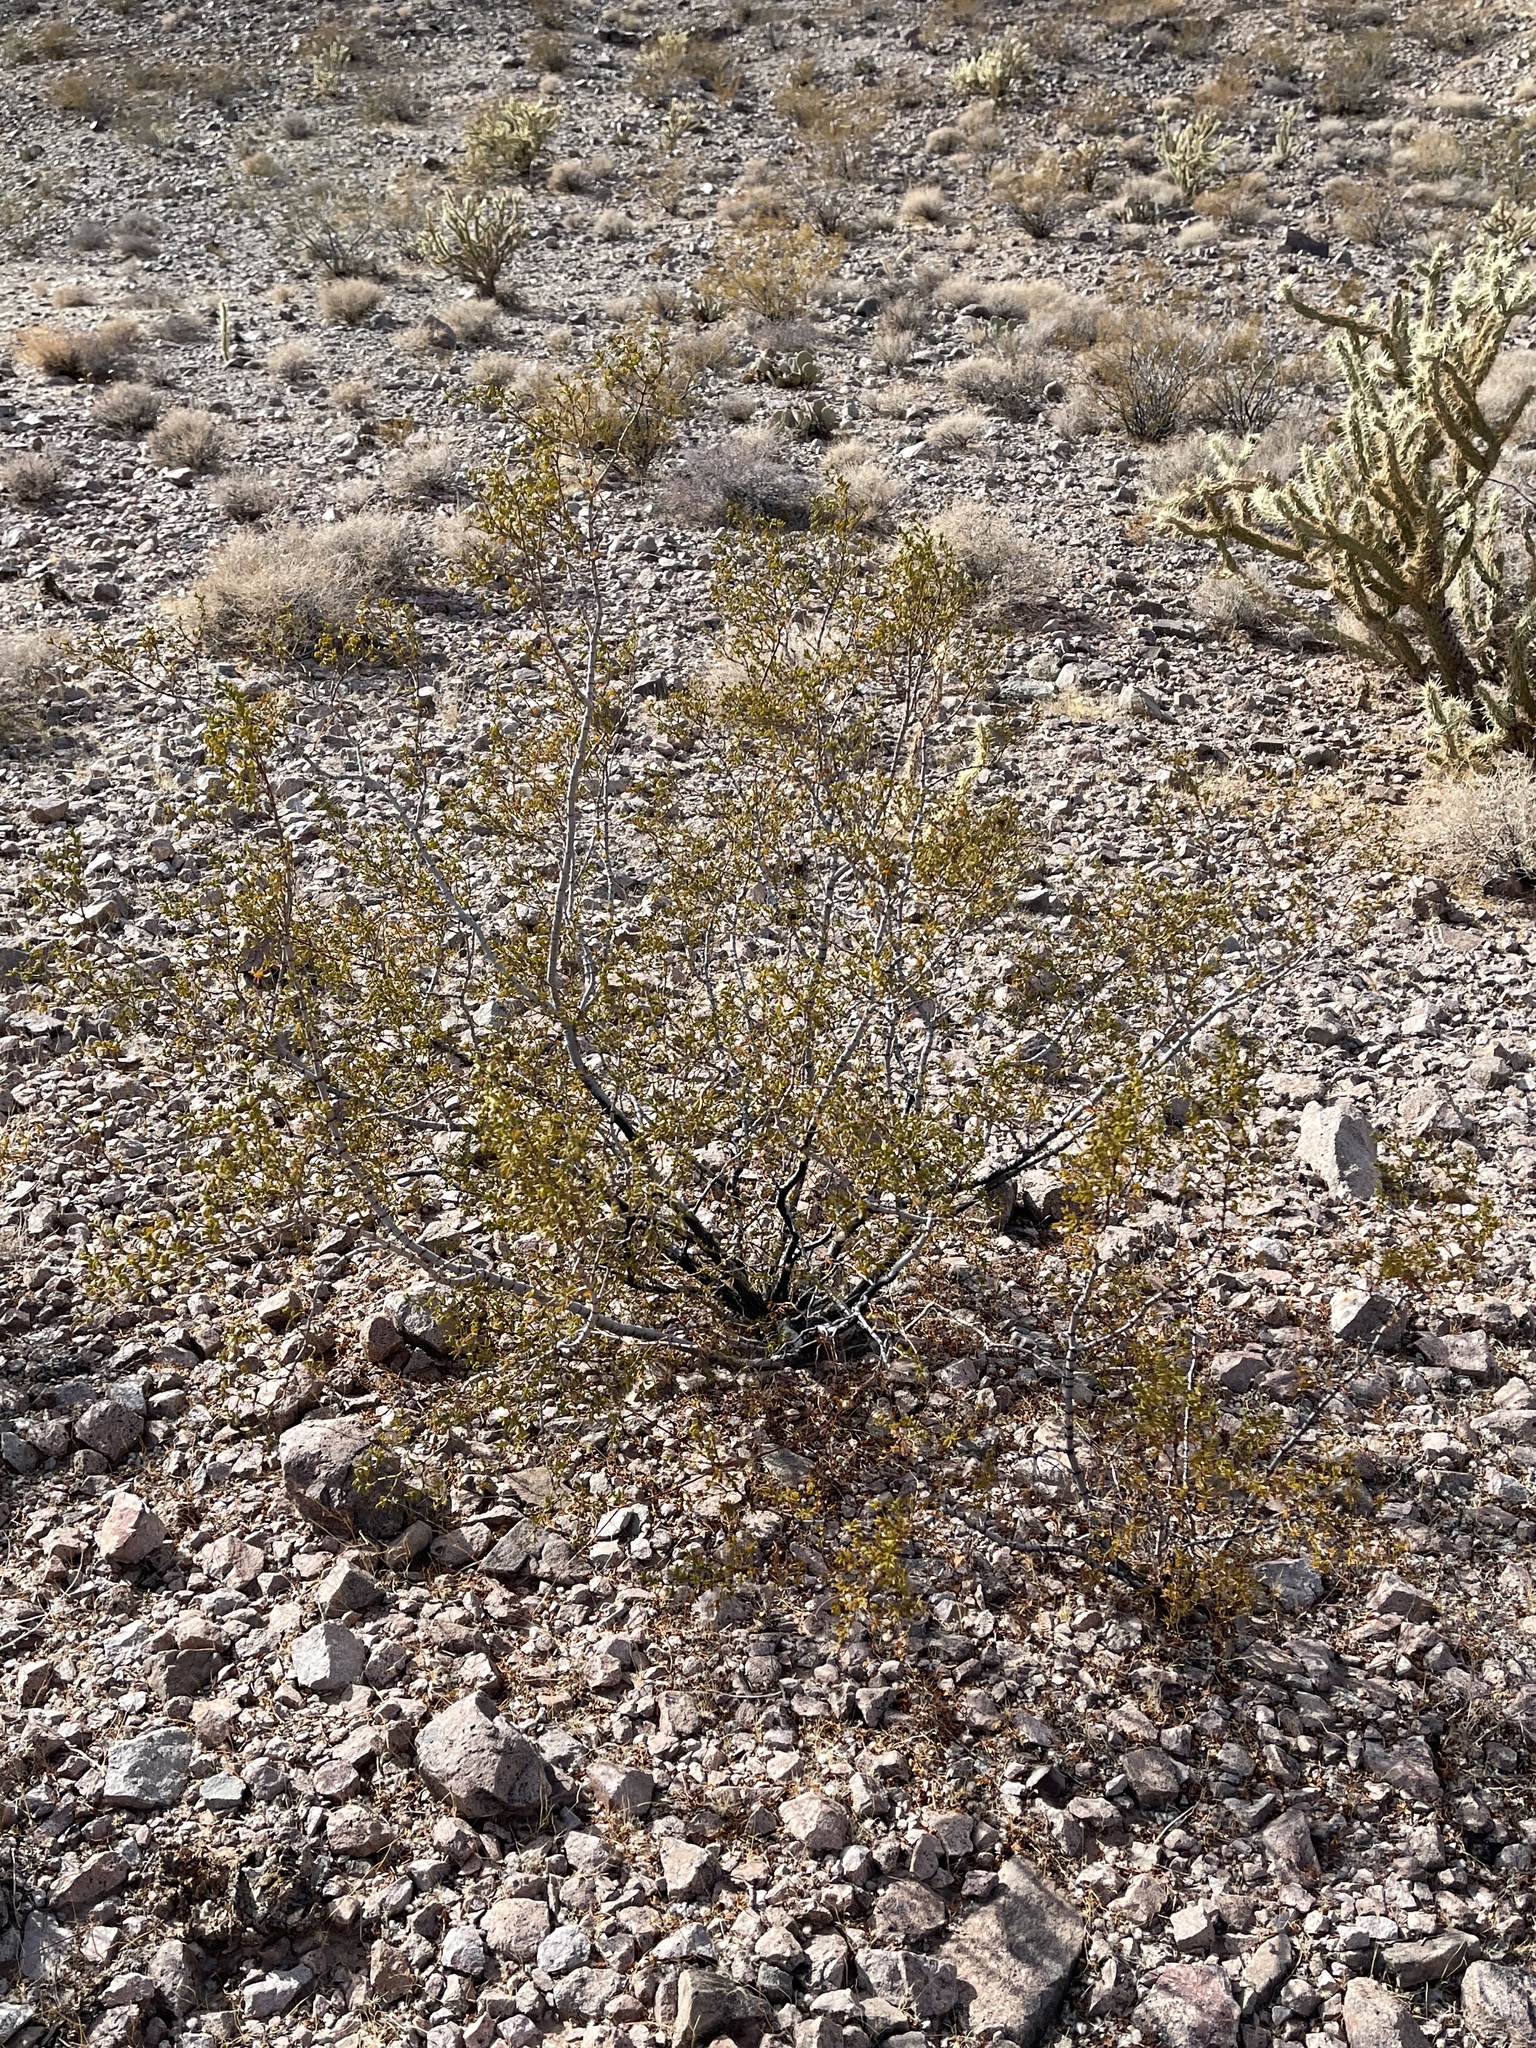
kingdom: Plantae
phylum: Tracheophyta
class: Magnoliopsida
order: Zygophyllales
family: Zygophyllaceae
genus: Larrea
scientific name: Larrea tridentata
